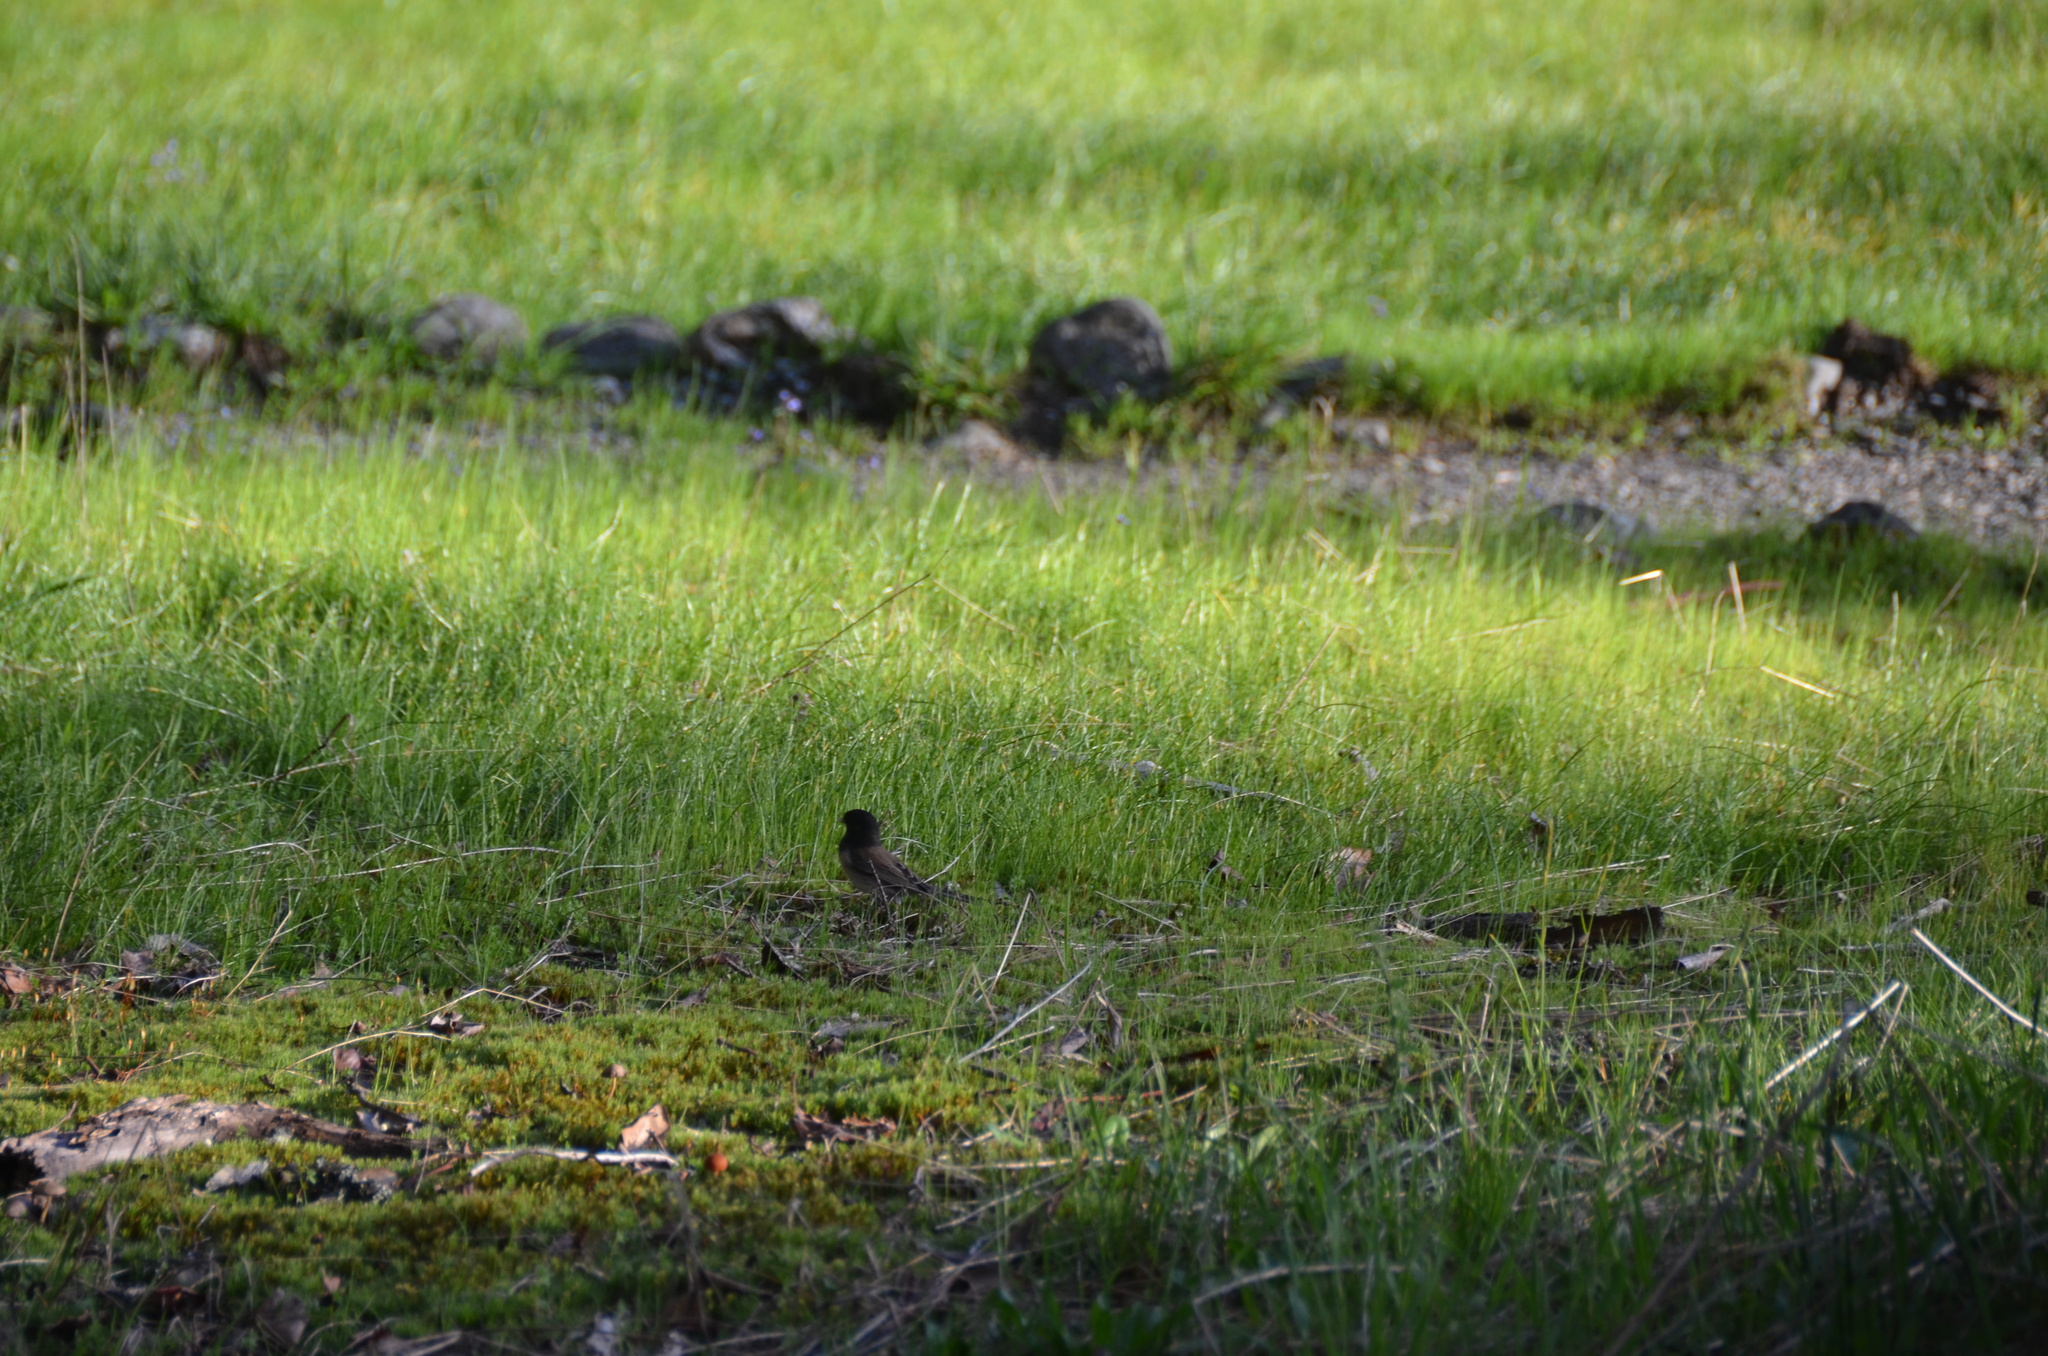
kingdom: Animalia
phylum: Chordata
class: Aves
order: Passeriformes
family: Passerellidae
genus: Junco
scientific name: Junco hyemalis
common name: Dark-eyed junco
